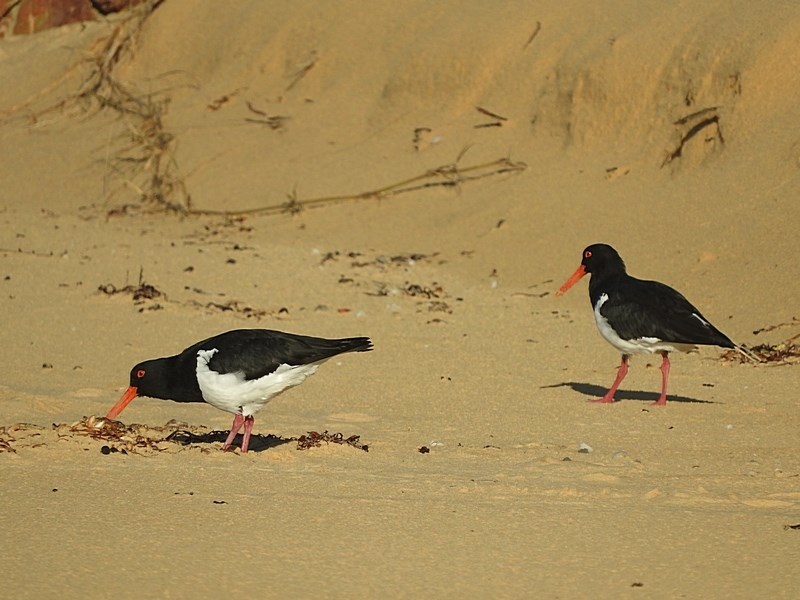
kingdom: Animalia
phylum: Chordata
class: Aves
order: Charadriiformes
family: Haematopodidae
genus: Haematopus
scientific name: Haematopus longirostris
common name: Pied oystercatcher
